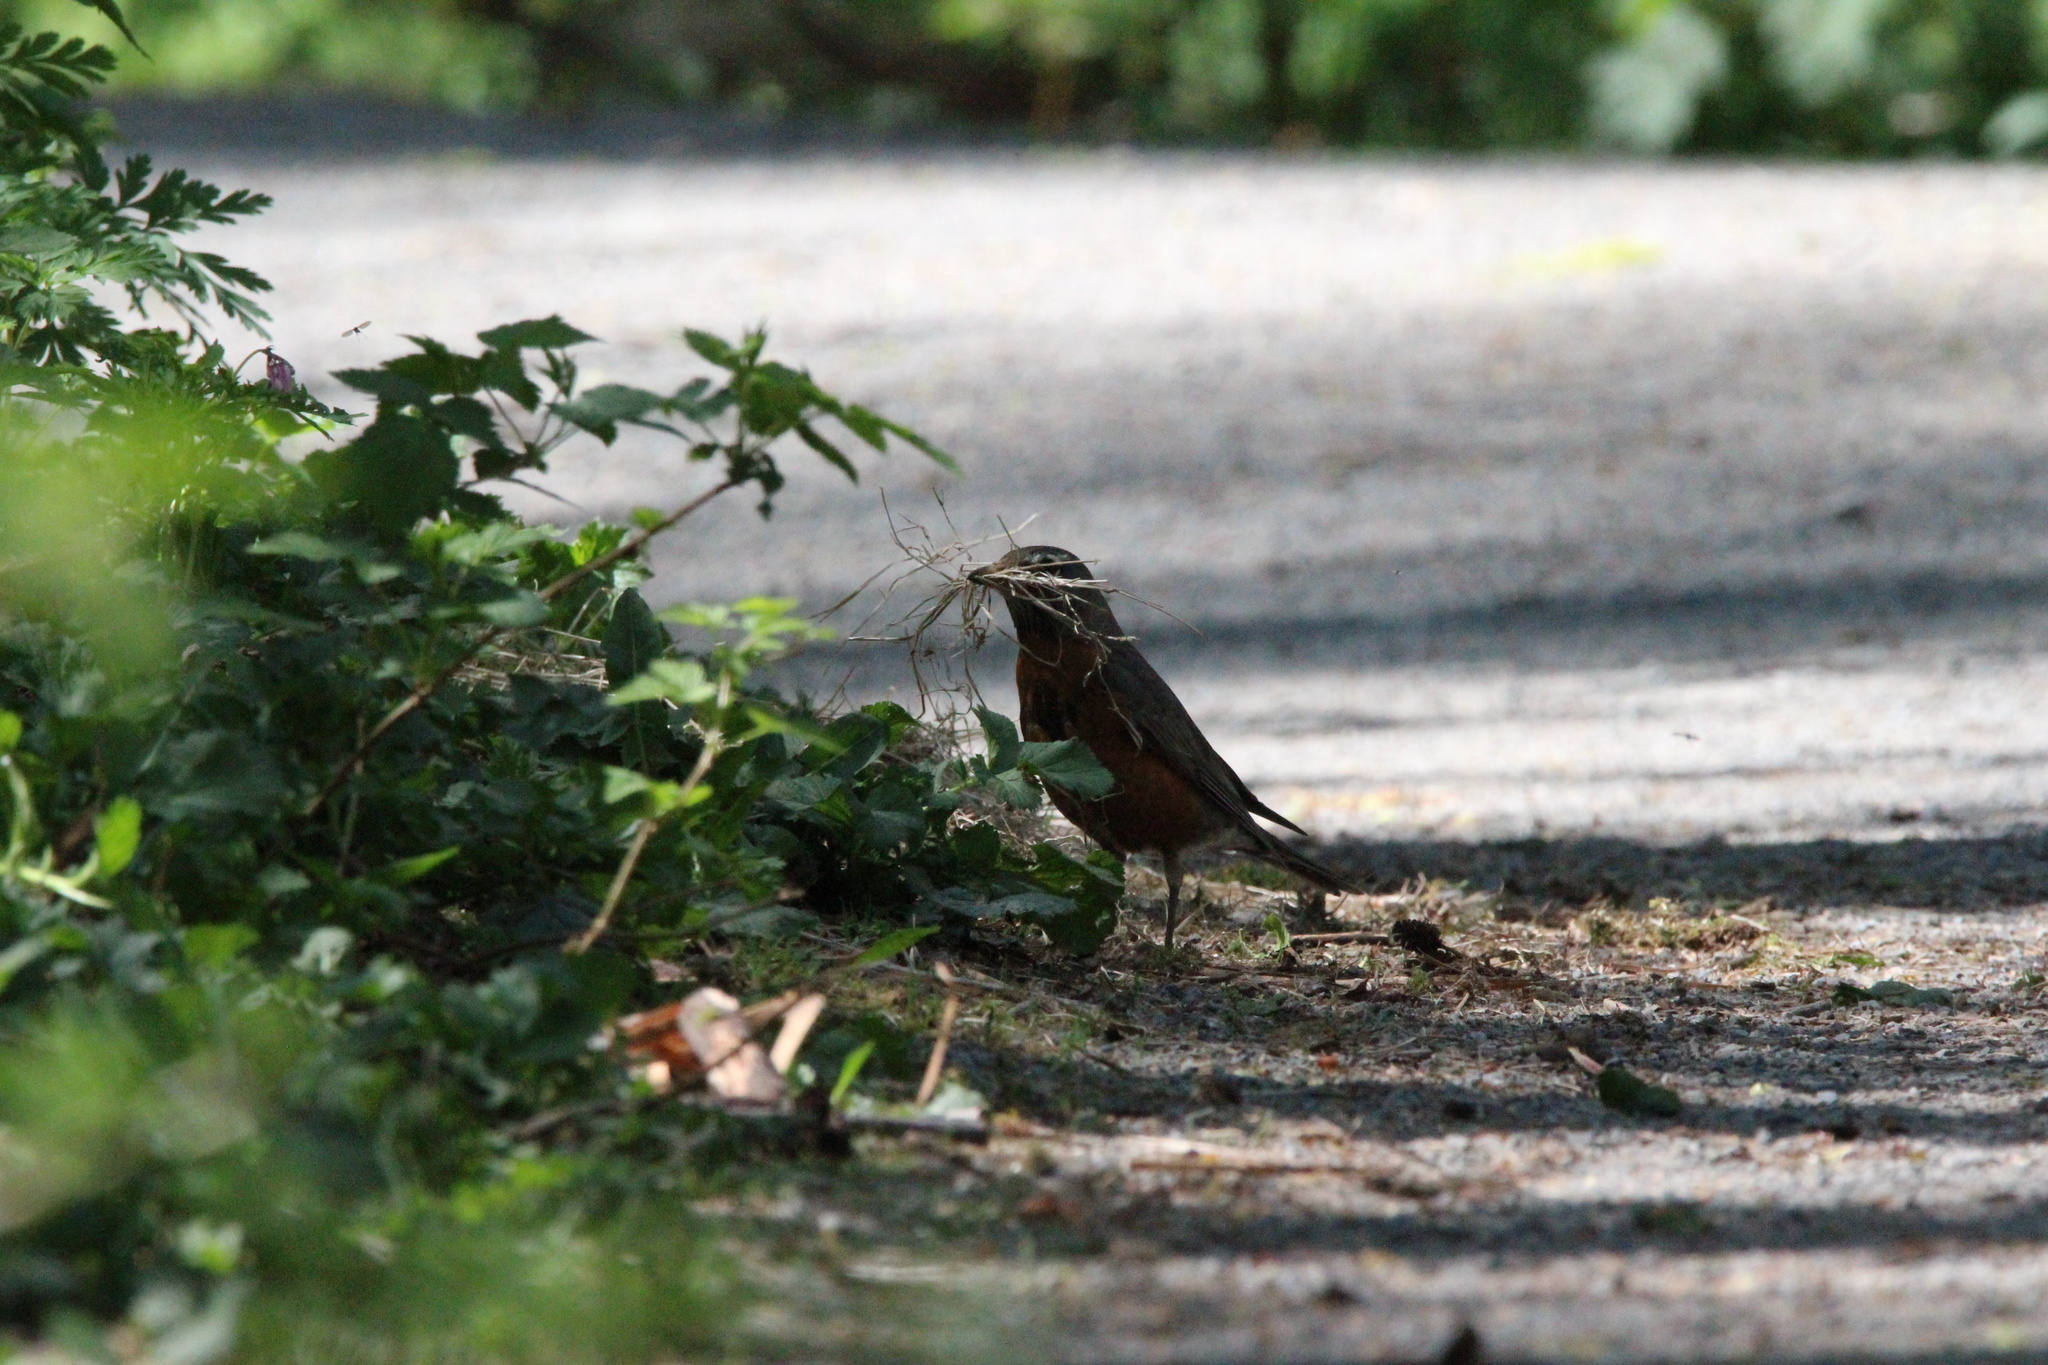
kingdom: Animalia
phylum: Chordata
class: Aves
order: Passeriformes
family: Turdidae
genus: Turdus
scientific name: Turdus migratorius
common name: American robin
